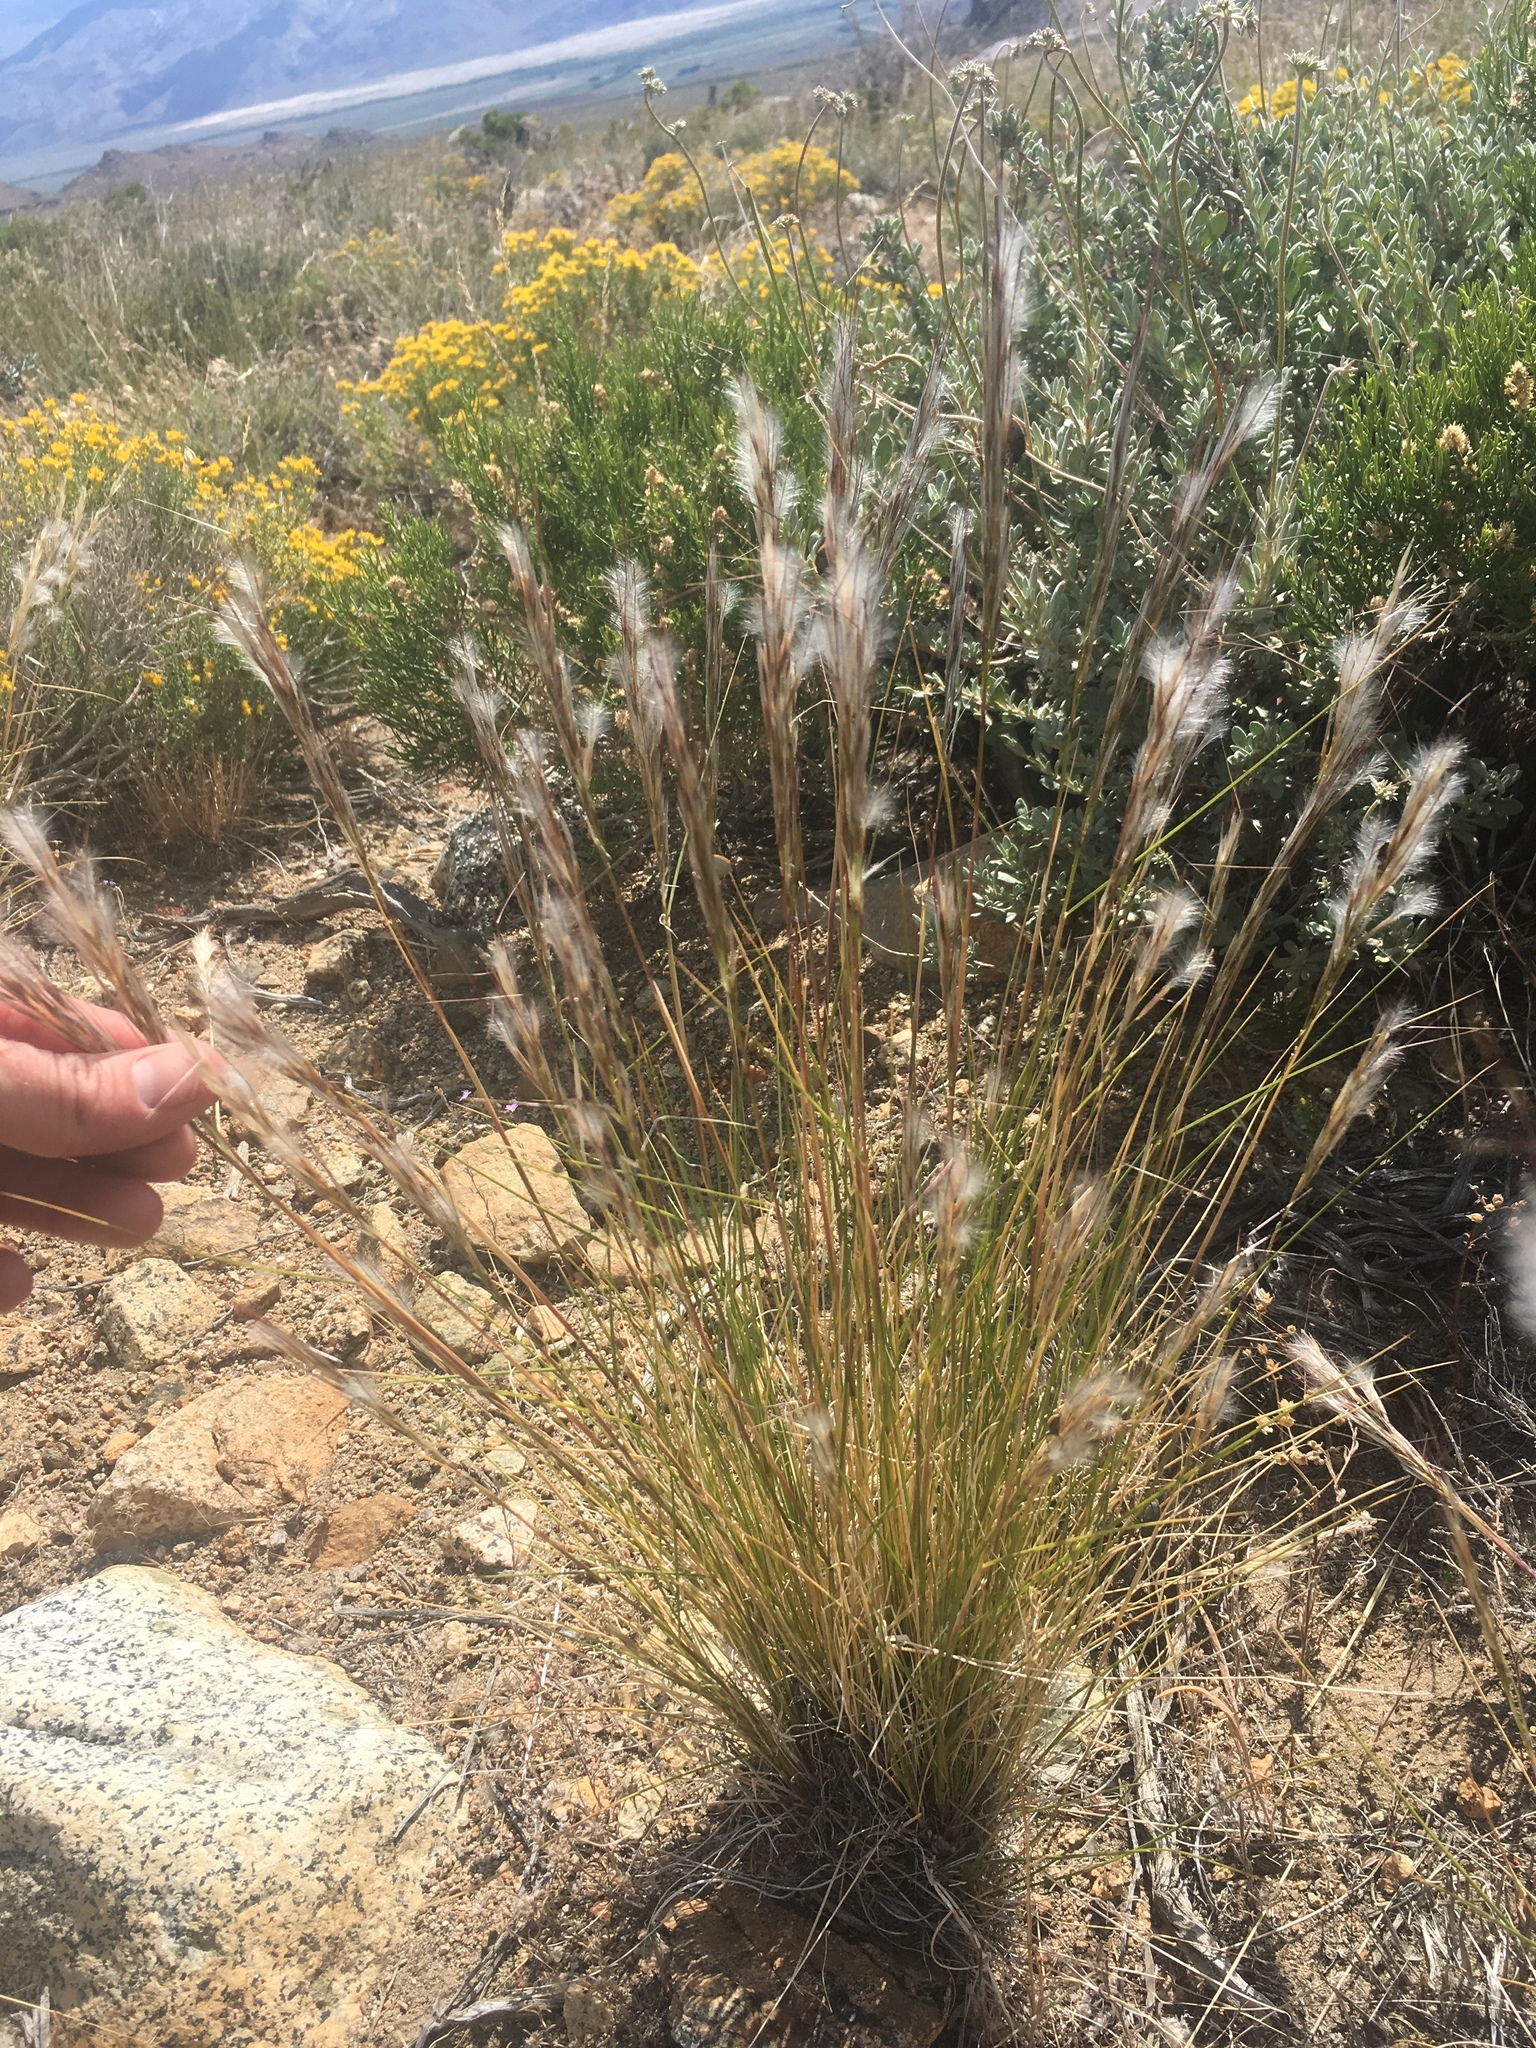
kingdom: Plantae
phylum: Tracheophyta
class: Liliopsida
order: Poales
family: Poaceae
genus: Pappostipa
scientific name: Pappostipa speciosa
